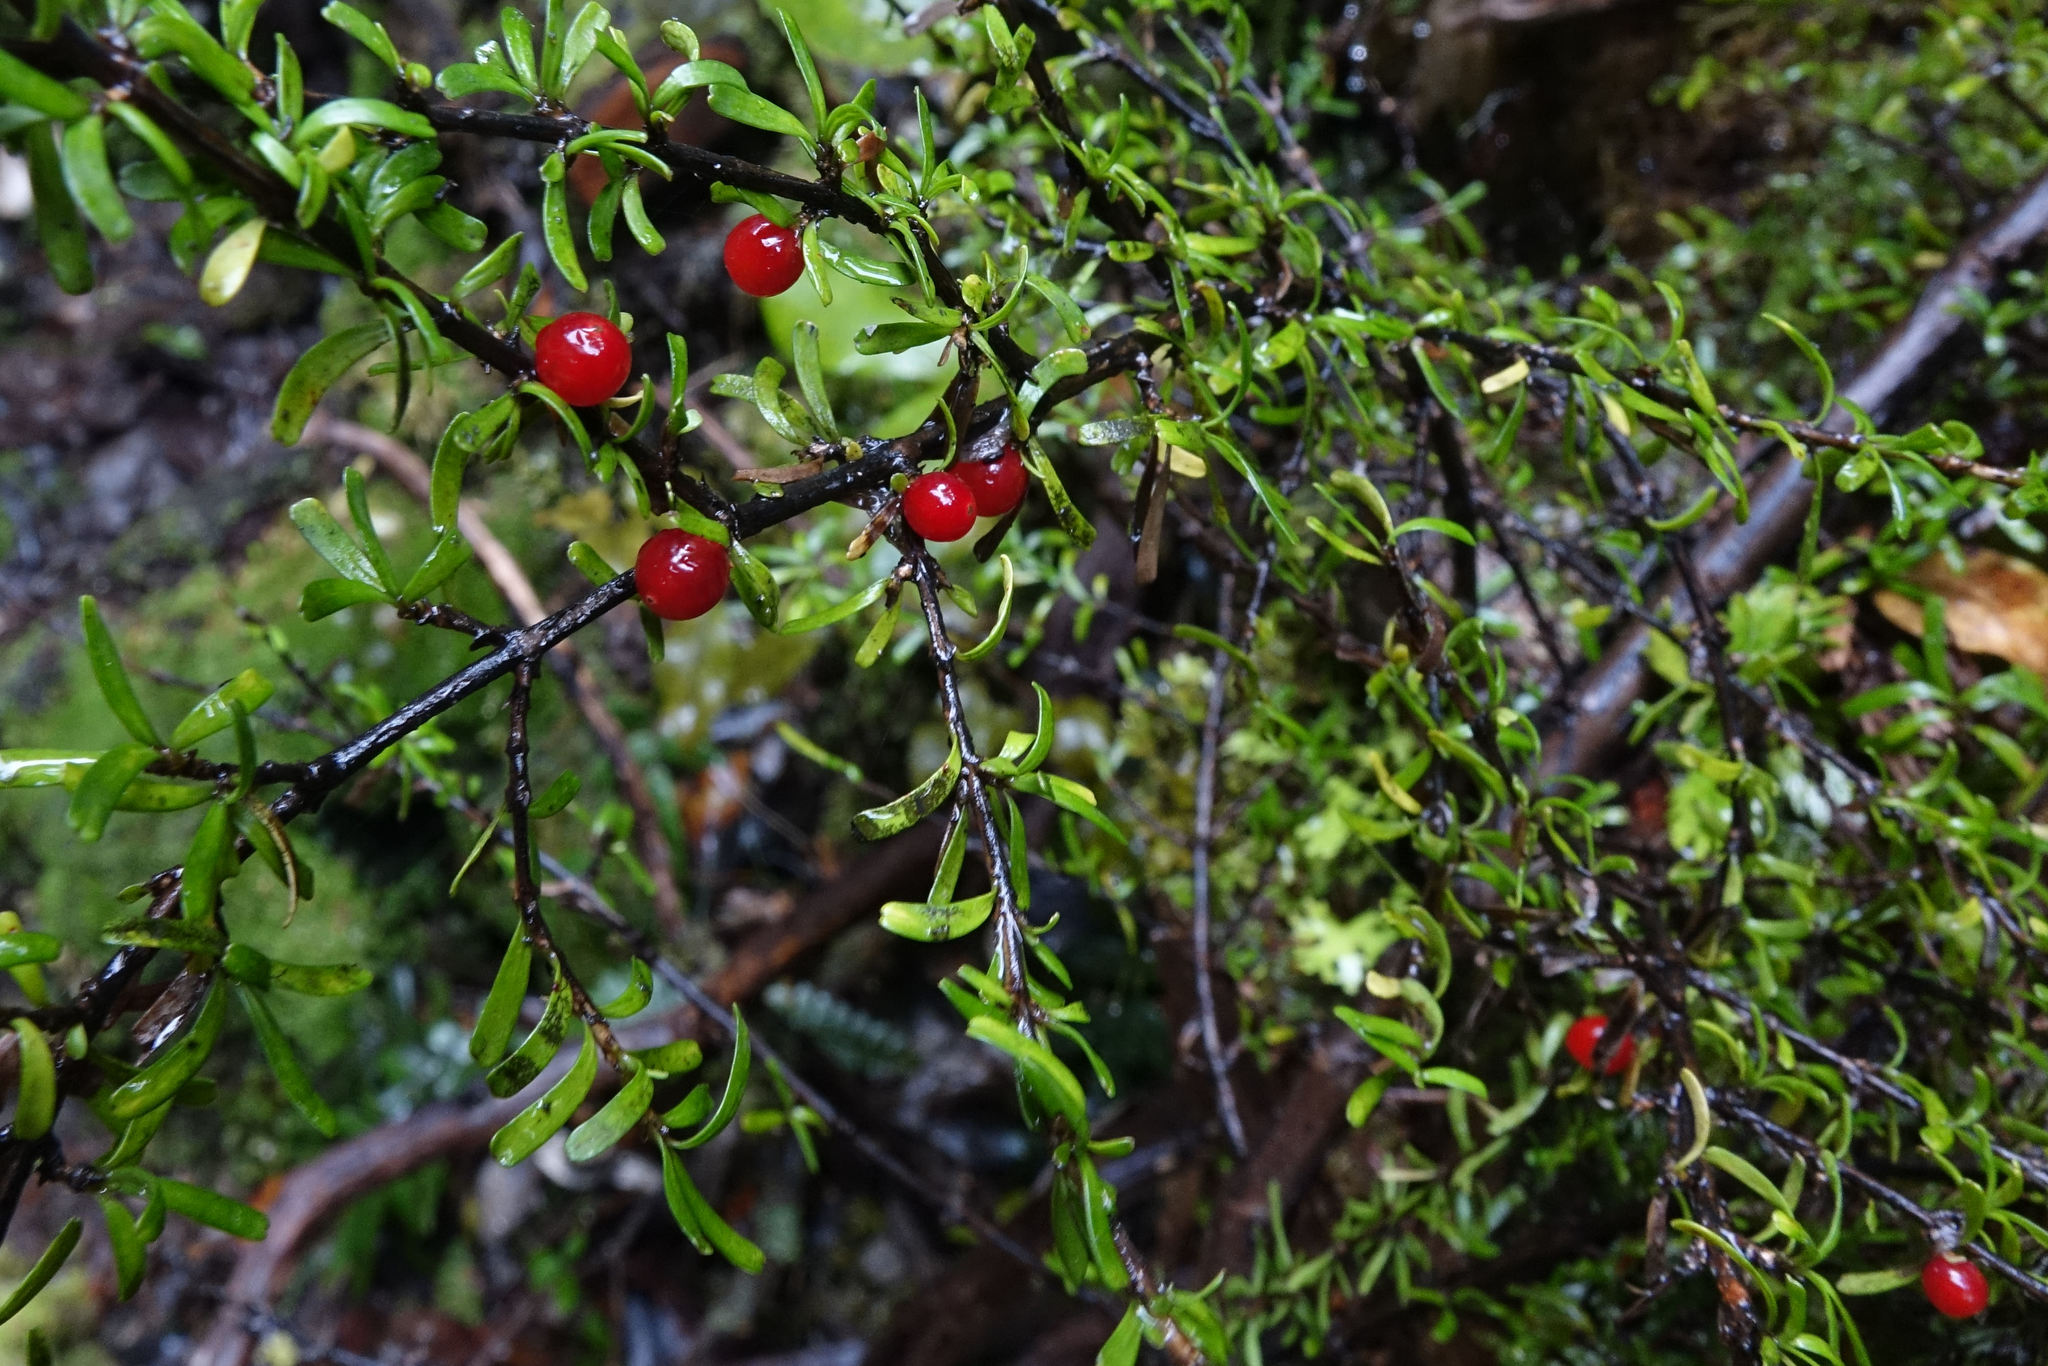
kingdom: Plantae
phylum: Tracheophyta
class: Magnoliopsida
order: Gentianales
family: Rubiaceae
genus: Coprosma
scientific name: Coprosma cuneata
